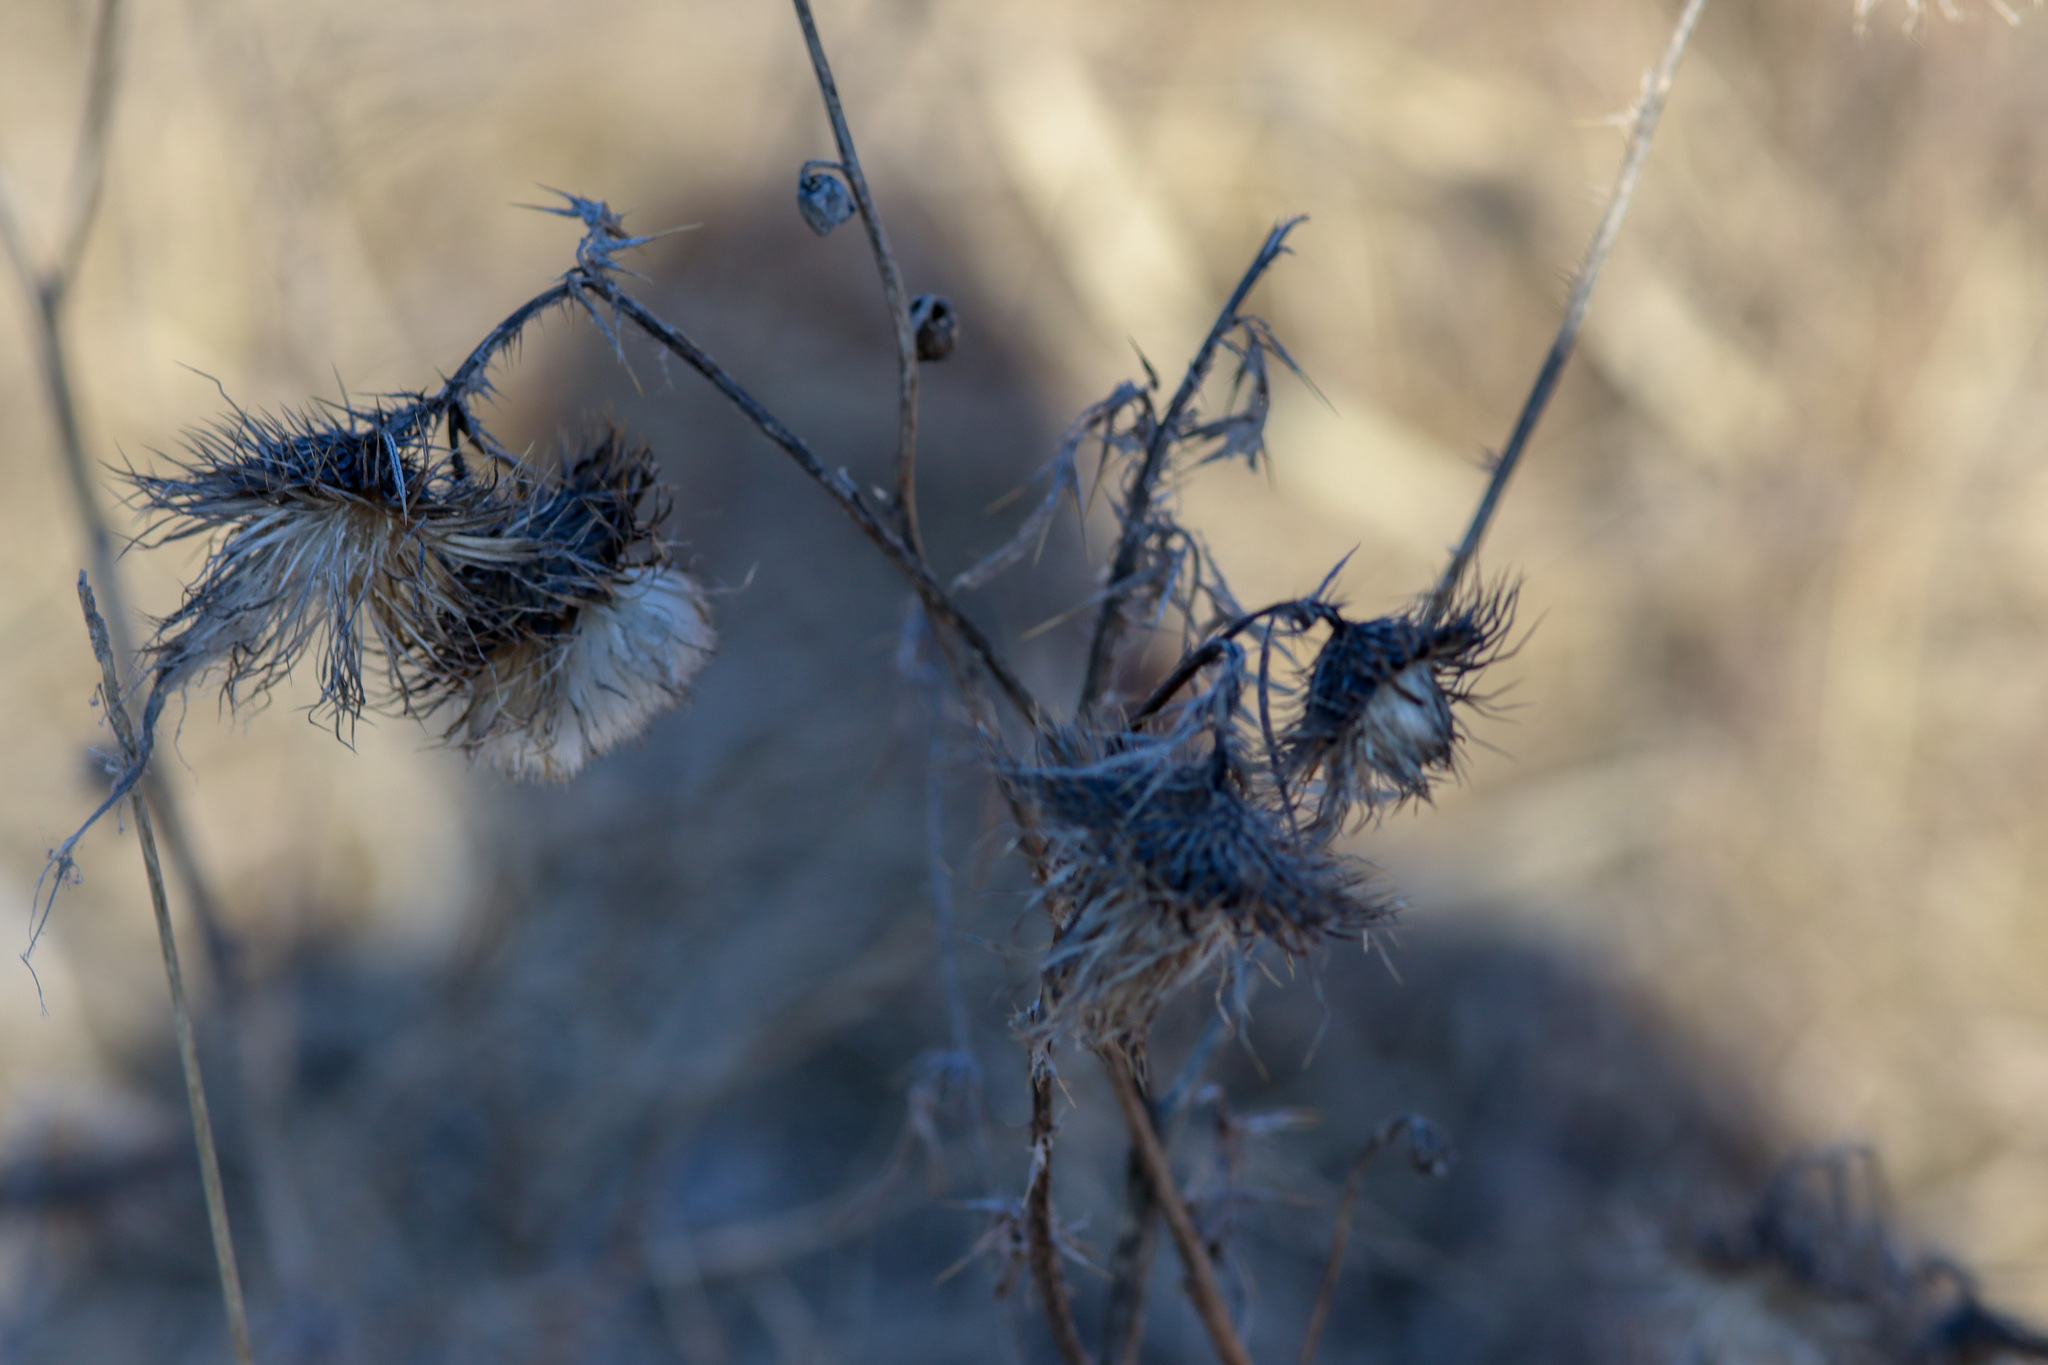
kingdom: Plantae
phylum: Tracheophyta
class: Magnoliopsida
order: Asterales
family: Asteraceae
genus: Cirsium
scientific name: Cirsium vulgare
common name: Bull thistle
